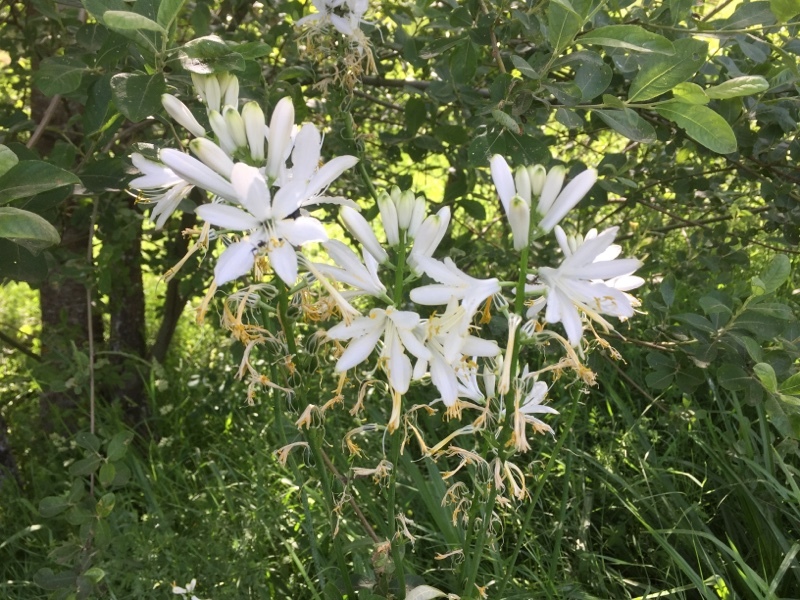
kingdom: Plantae
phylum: Tracheophyta
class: Liliopsida
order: Asparagales
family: Asparagaceae
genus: Paradisea
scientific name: Paradisea lusitanica
